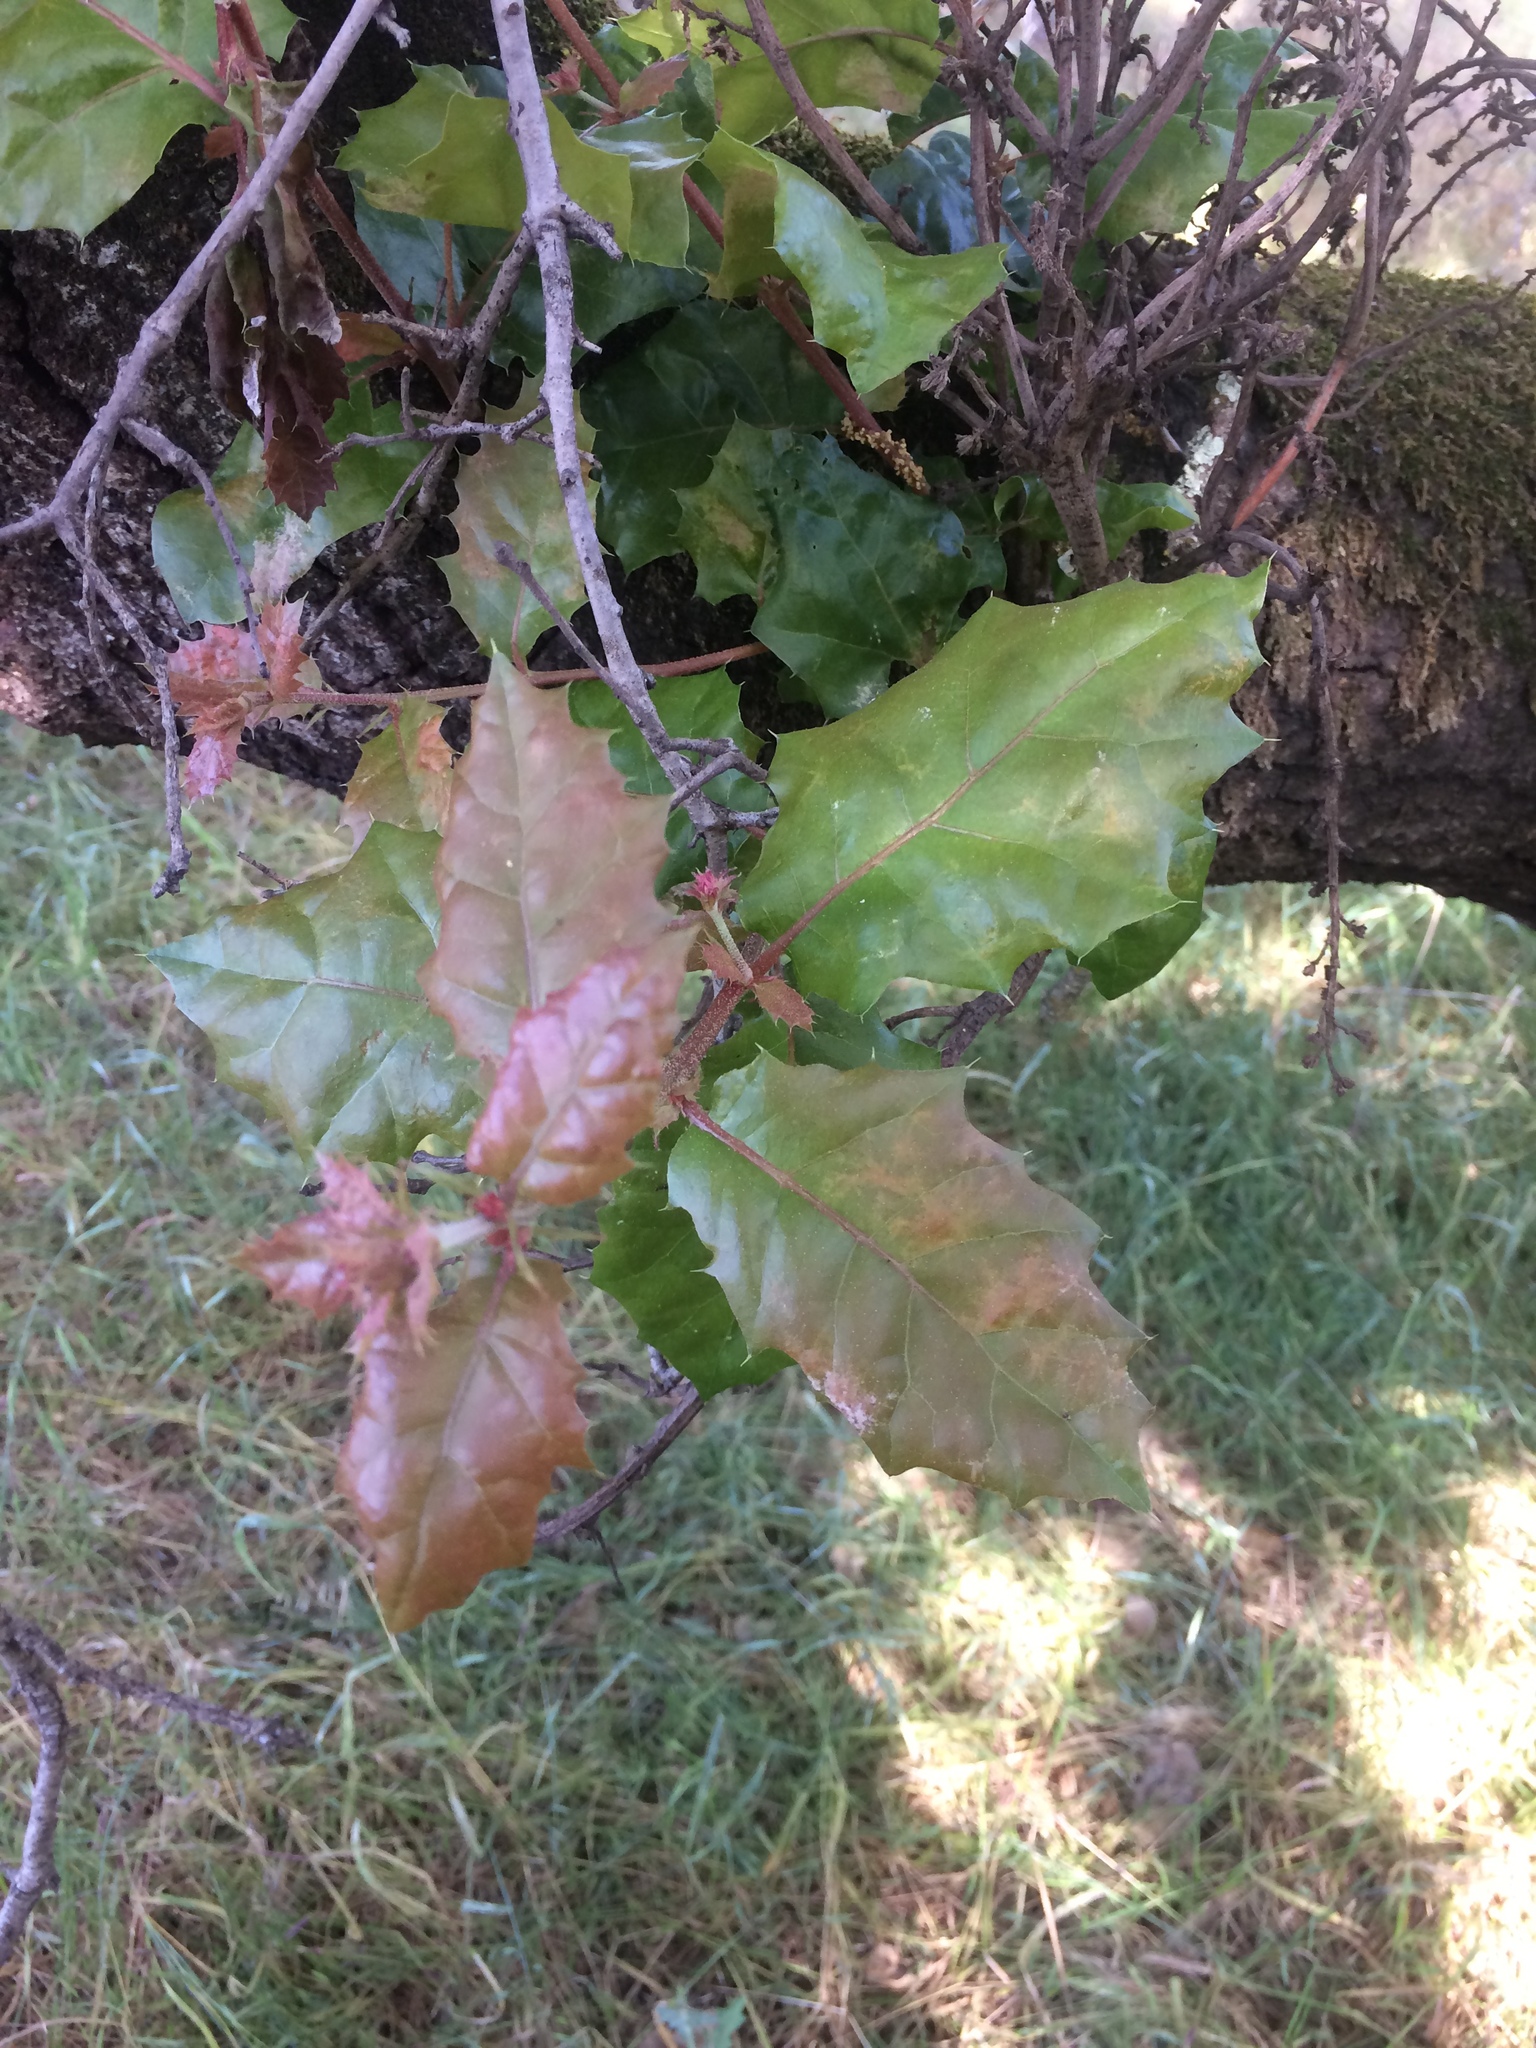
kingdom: Plantae
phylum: Tracheophyta
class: Magnoliopsida
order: Fagales
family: Fagaceae
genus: Quercus
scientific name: Quercus agrifolia
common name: California live oak
